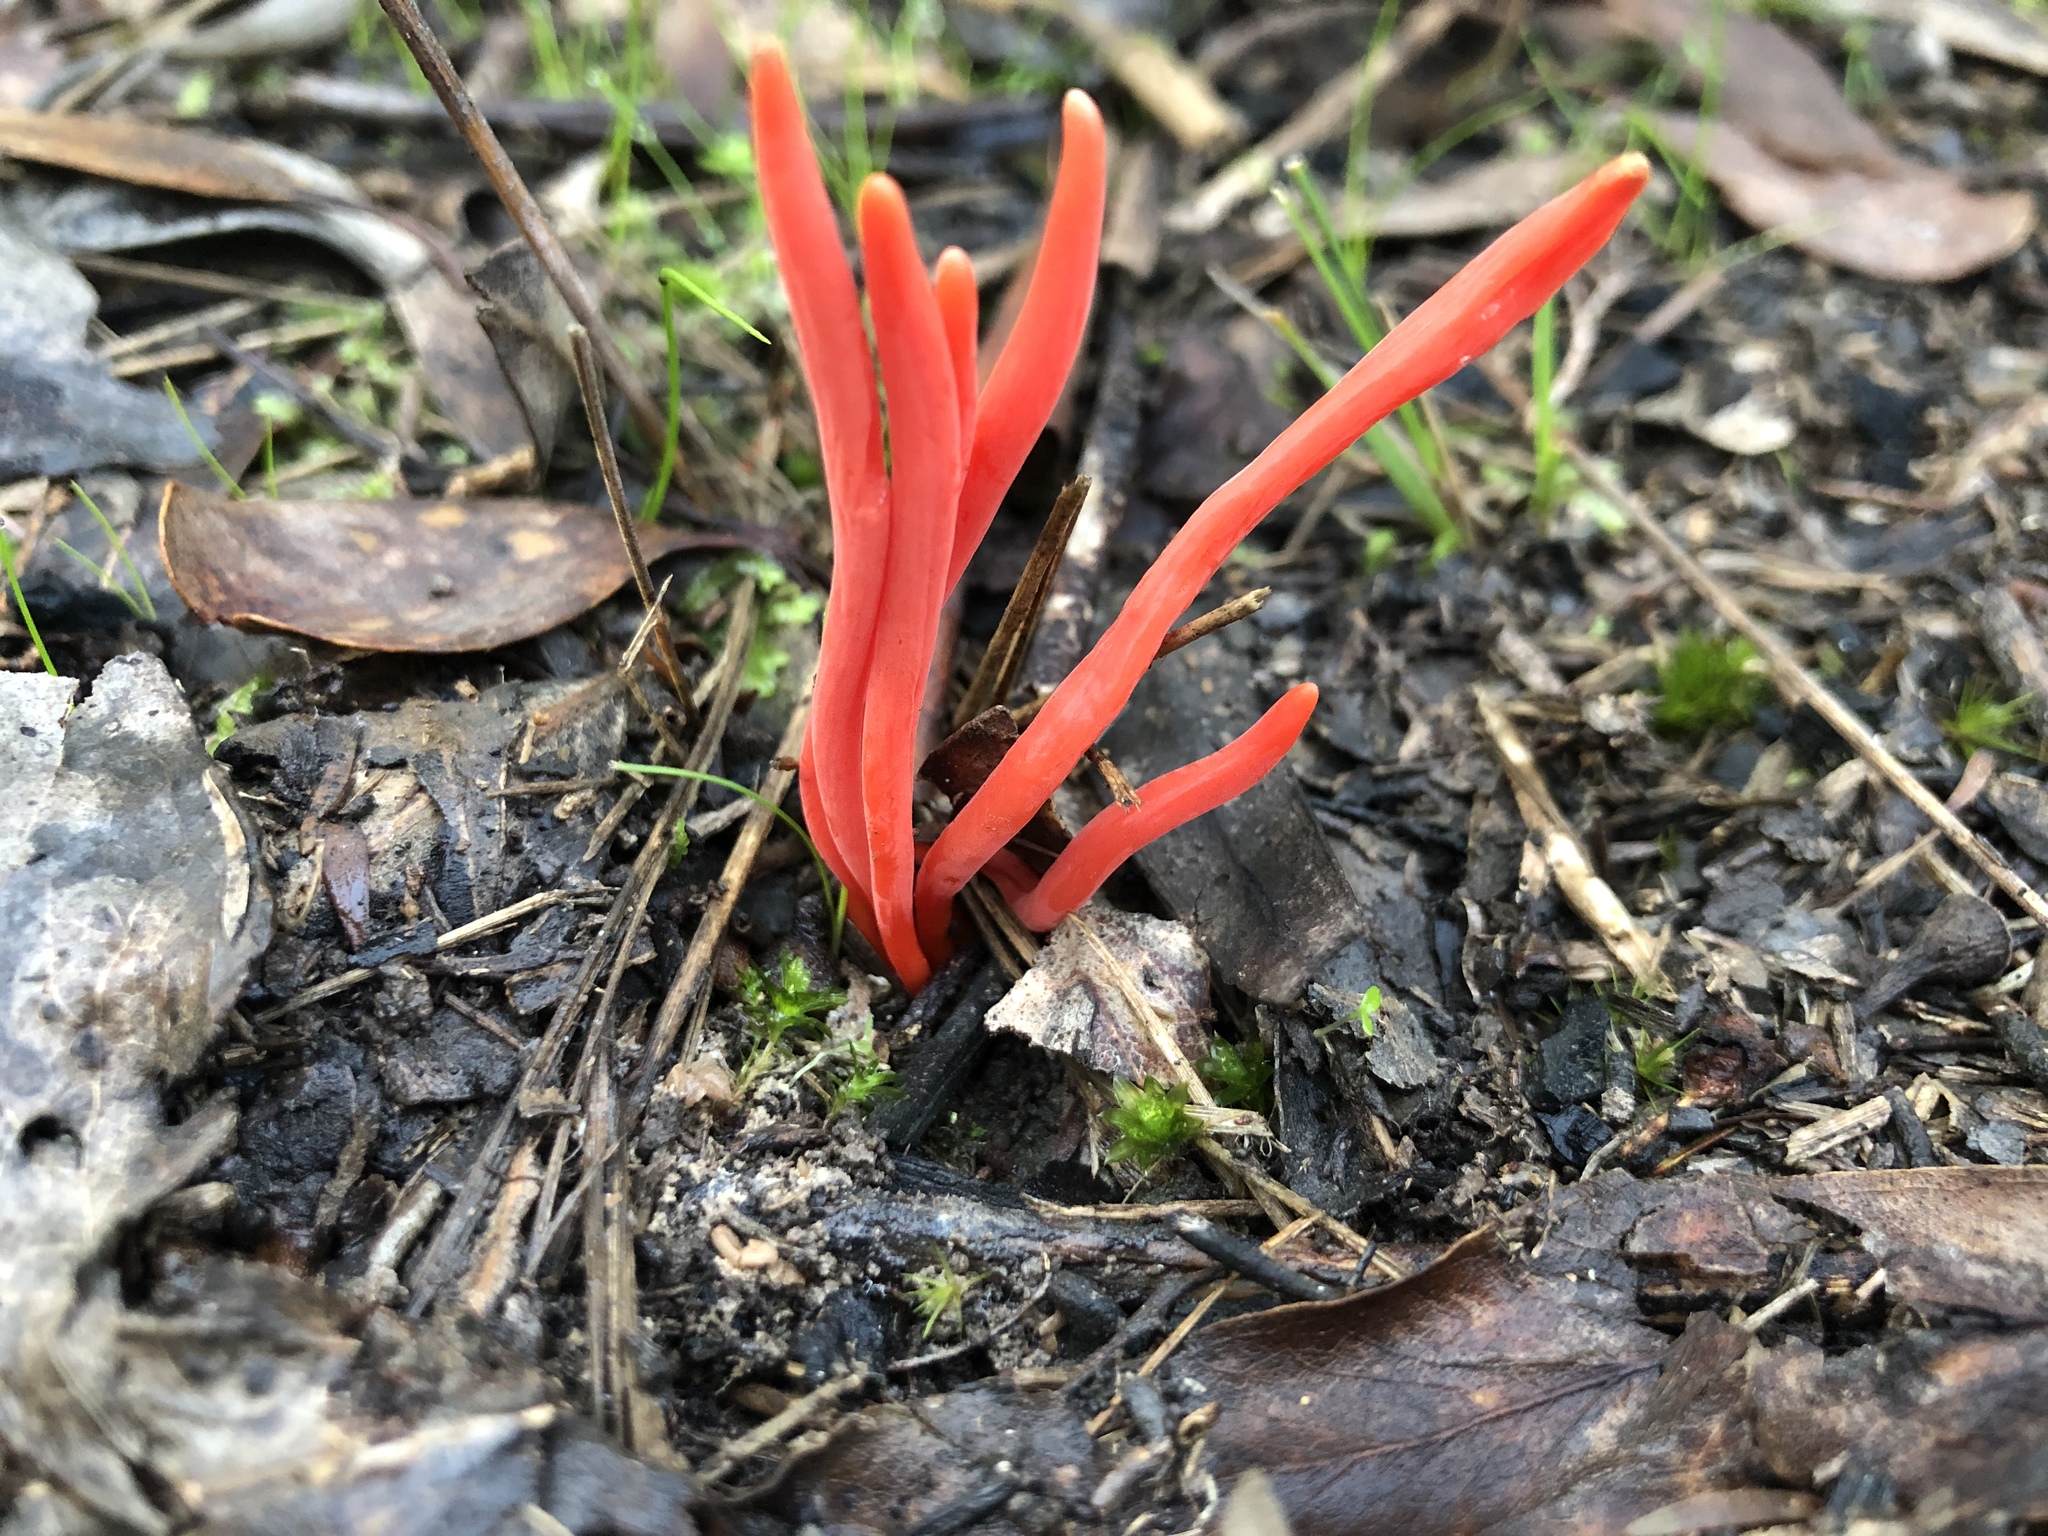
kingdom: Fungi
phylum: Basidiomycota
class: Agaricomycetes
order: Agaricales
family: Clavariaceae
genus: Clavulinopsis
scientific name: Clavulinopsis sulcata
